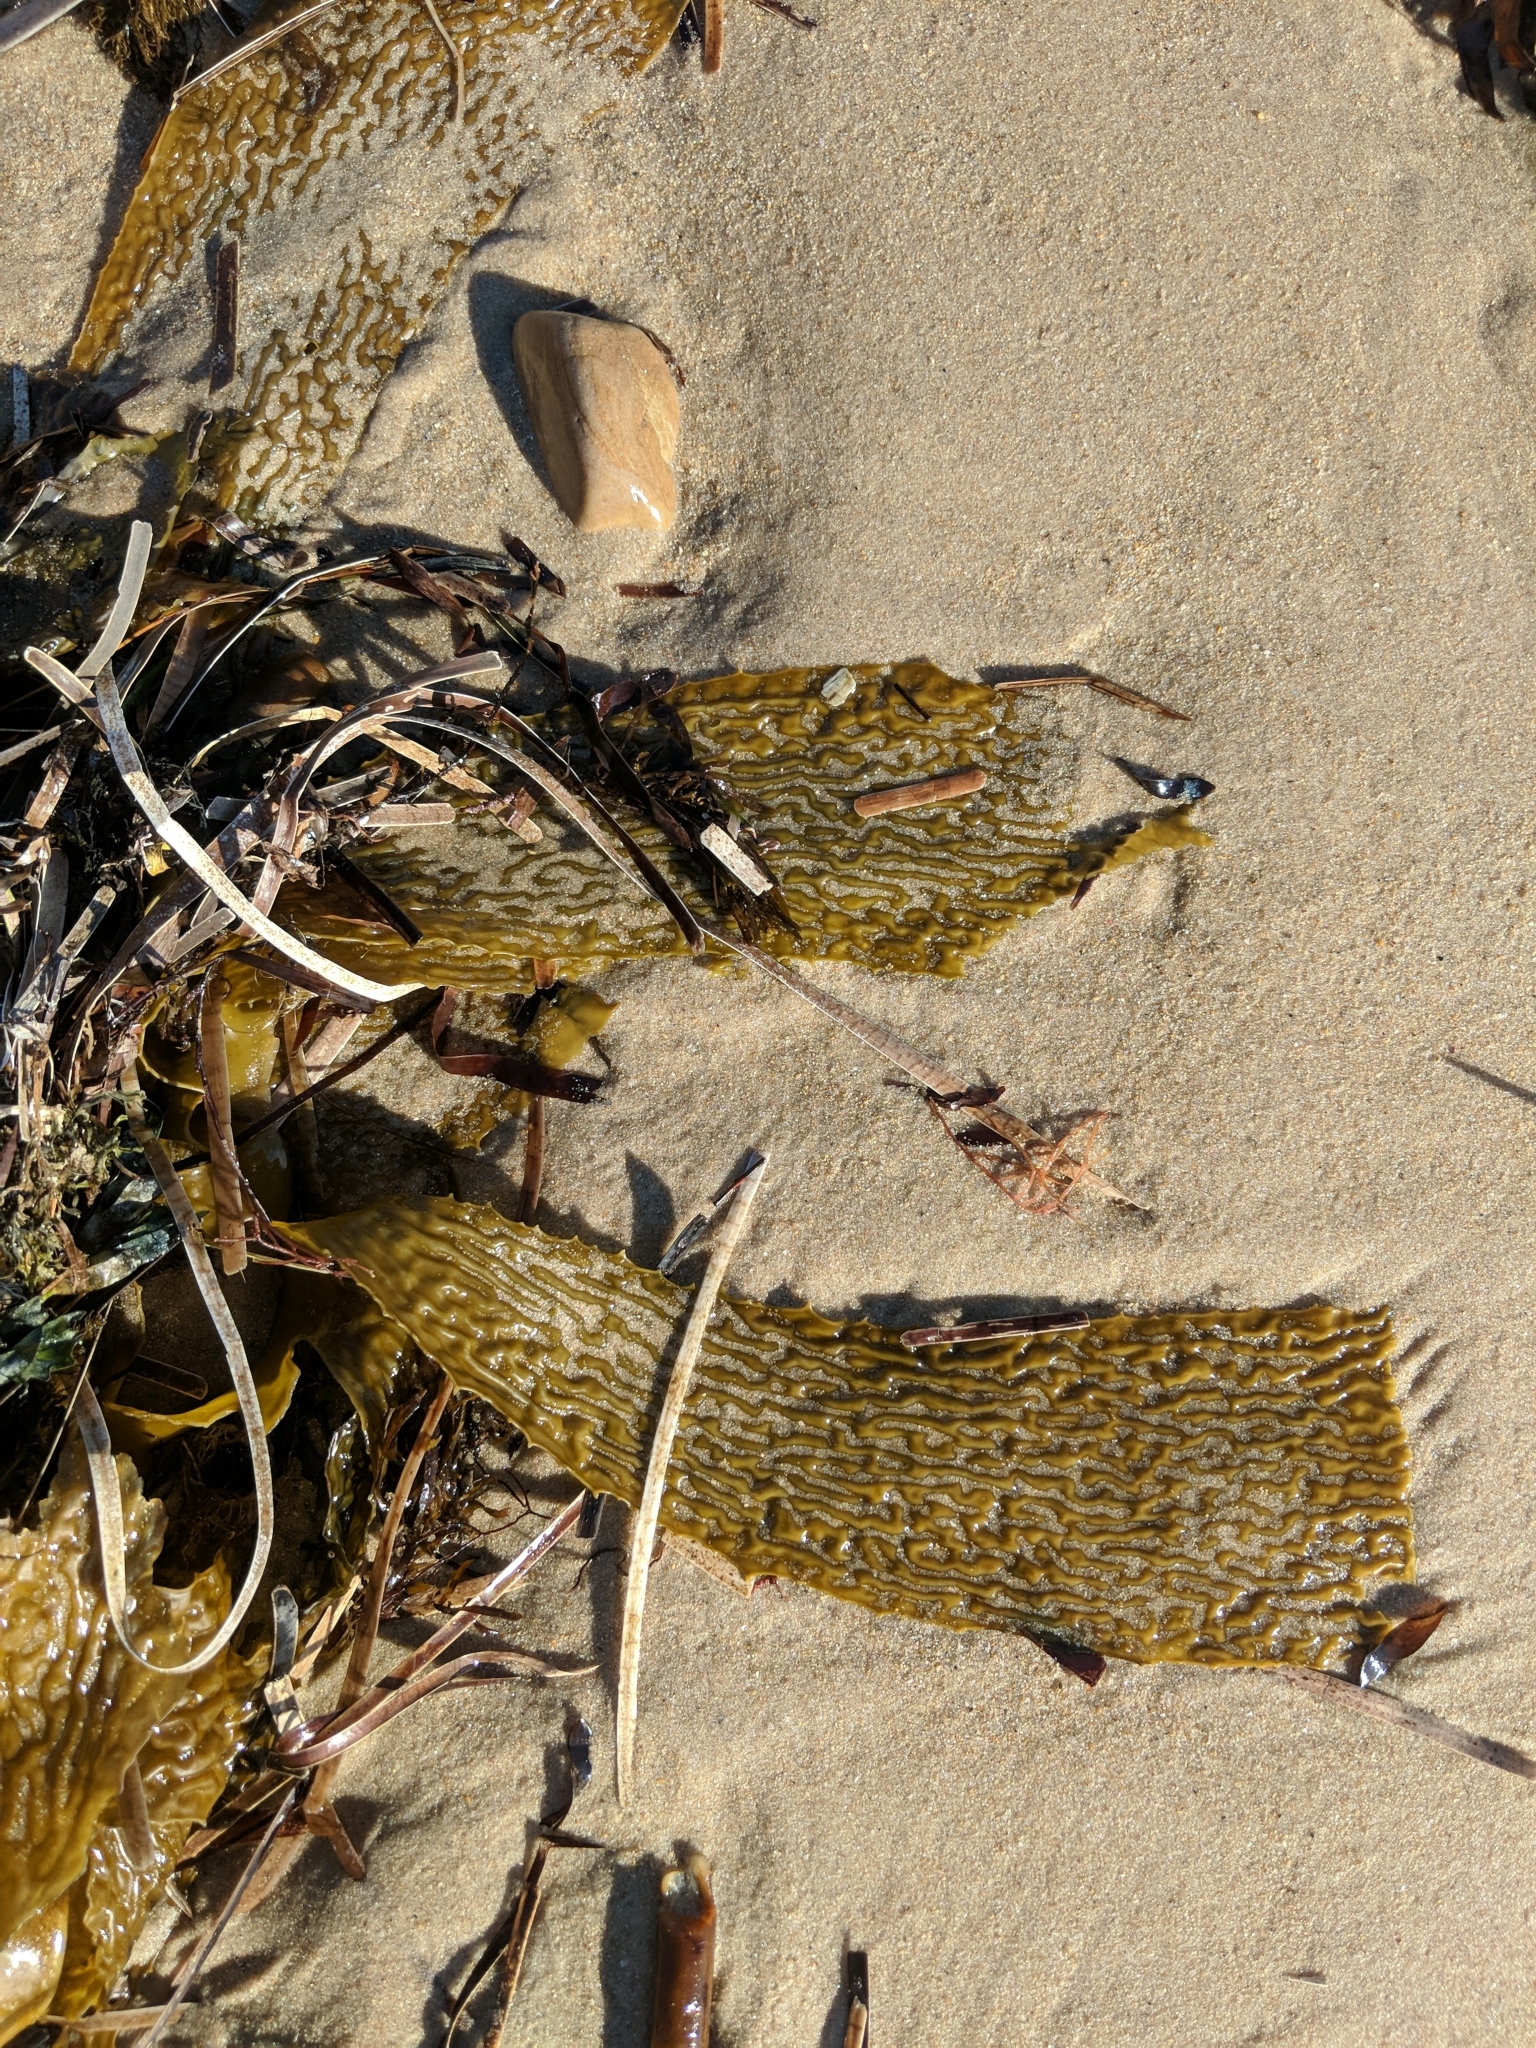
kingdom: Chromista
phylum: Ochrophyta
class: Phaeophyceae
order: Laminariales
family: Lessoniaceae
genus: Ecklonia
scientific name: Ecklonia radiata
